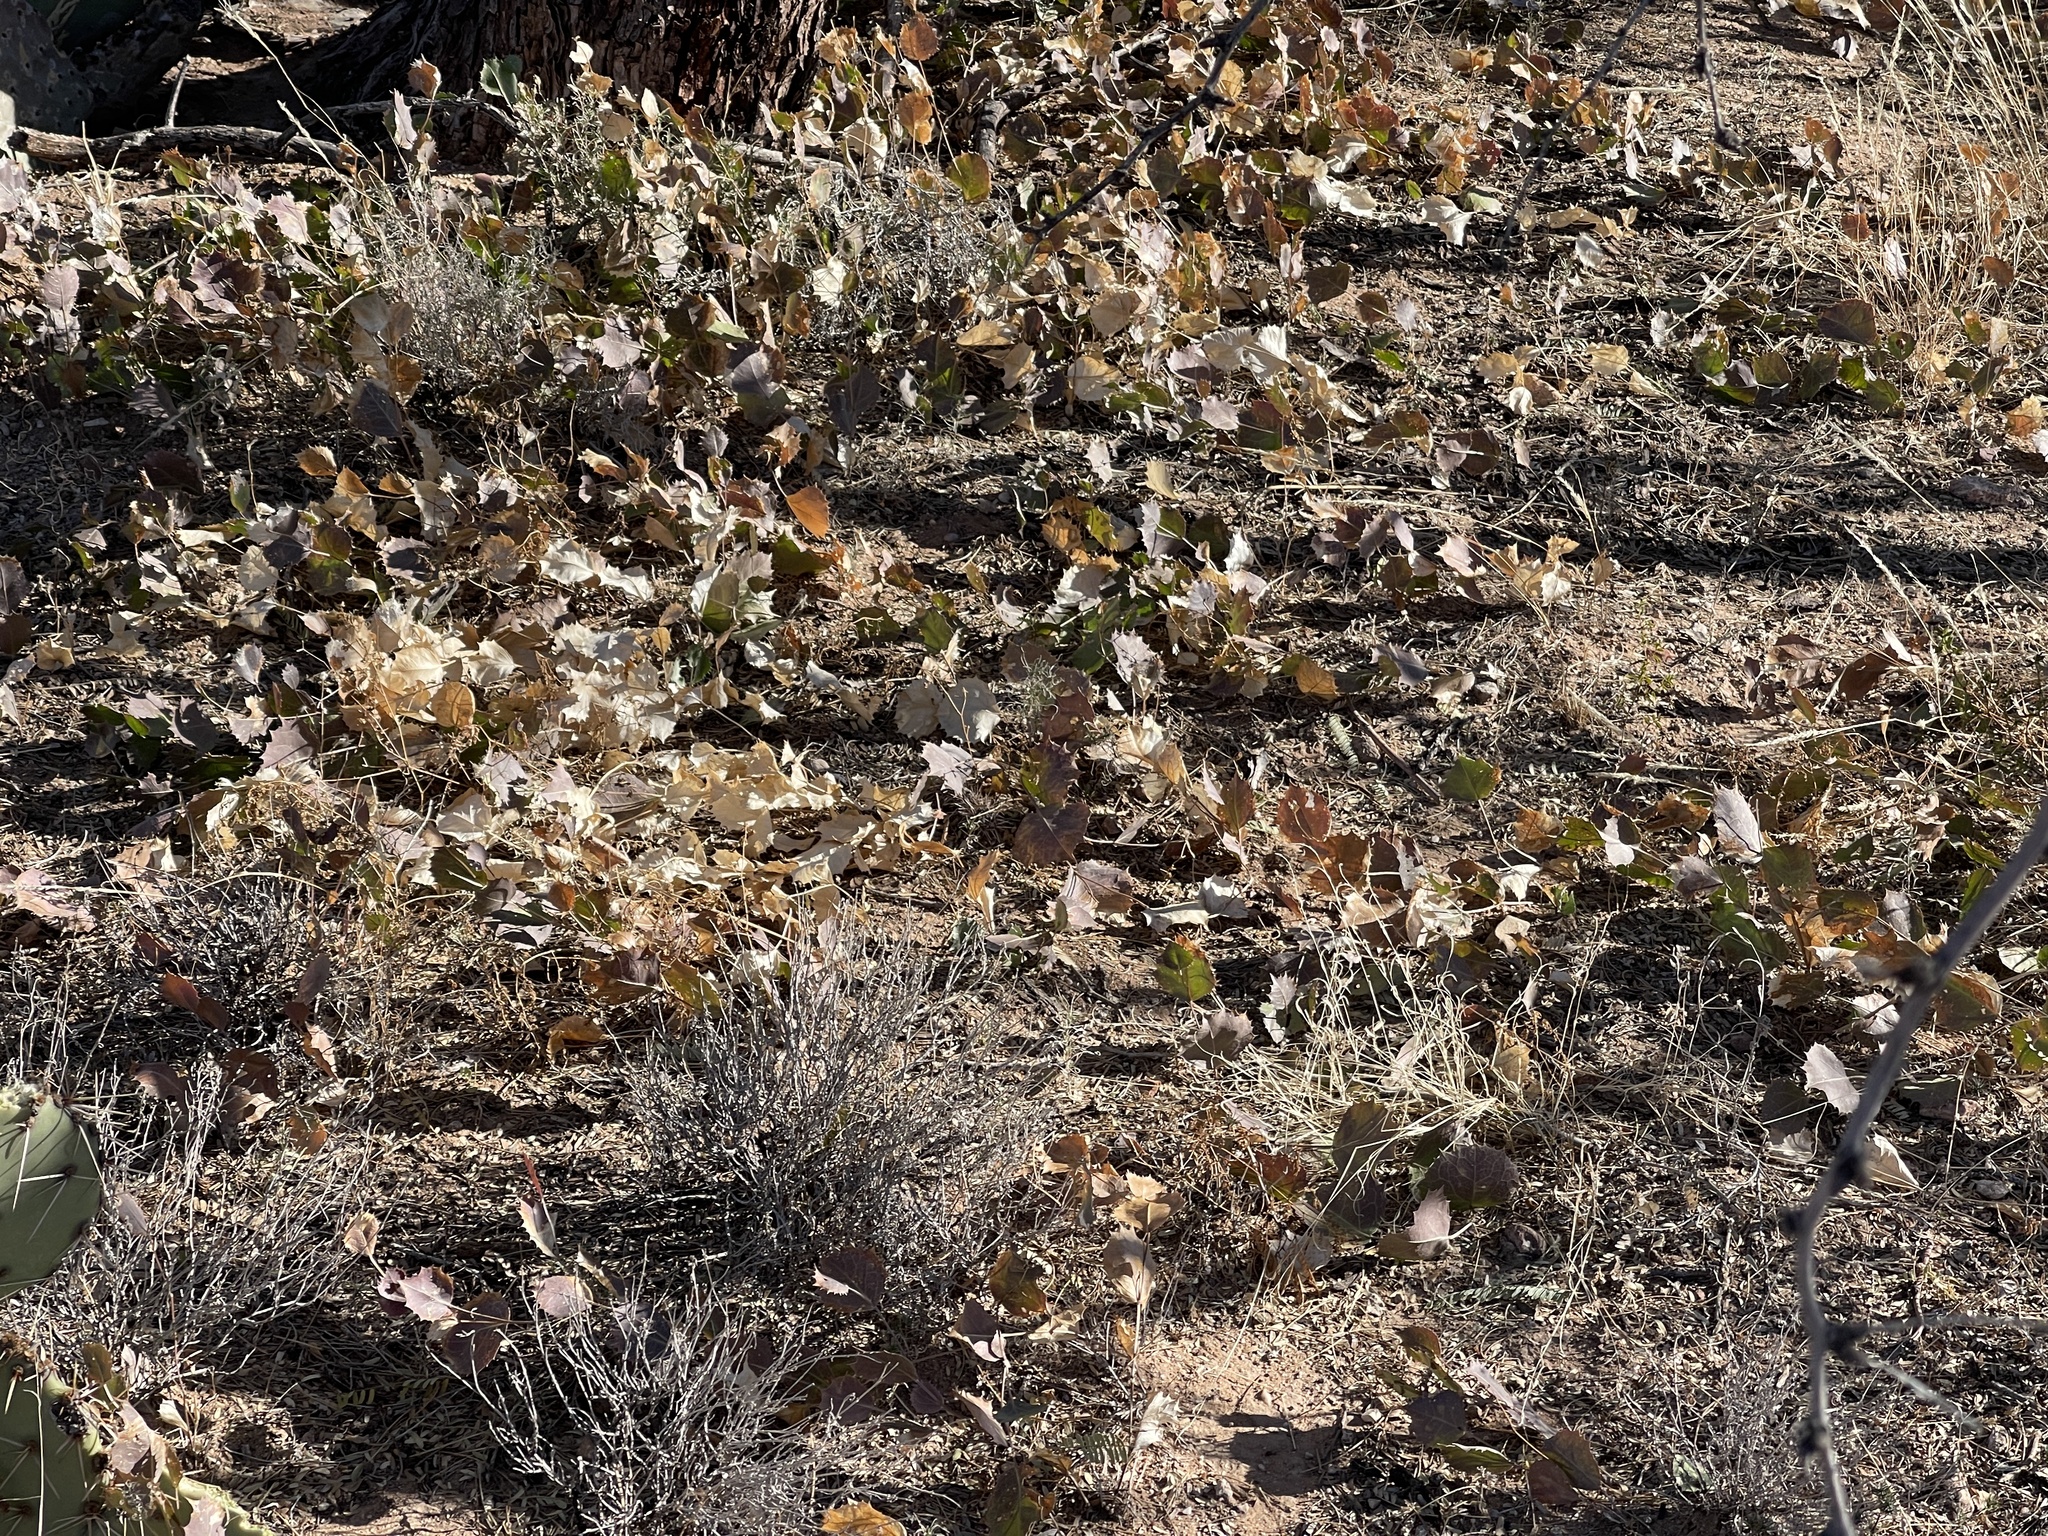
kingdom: Plantae
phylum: Tracheophyta
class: Magnoliopsida
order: Asterales
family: Asteraceae
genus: Acourtia
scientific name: Acourtia nana
